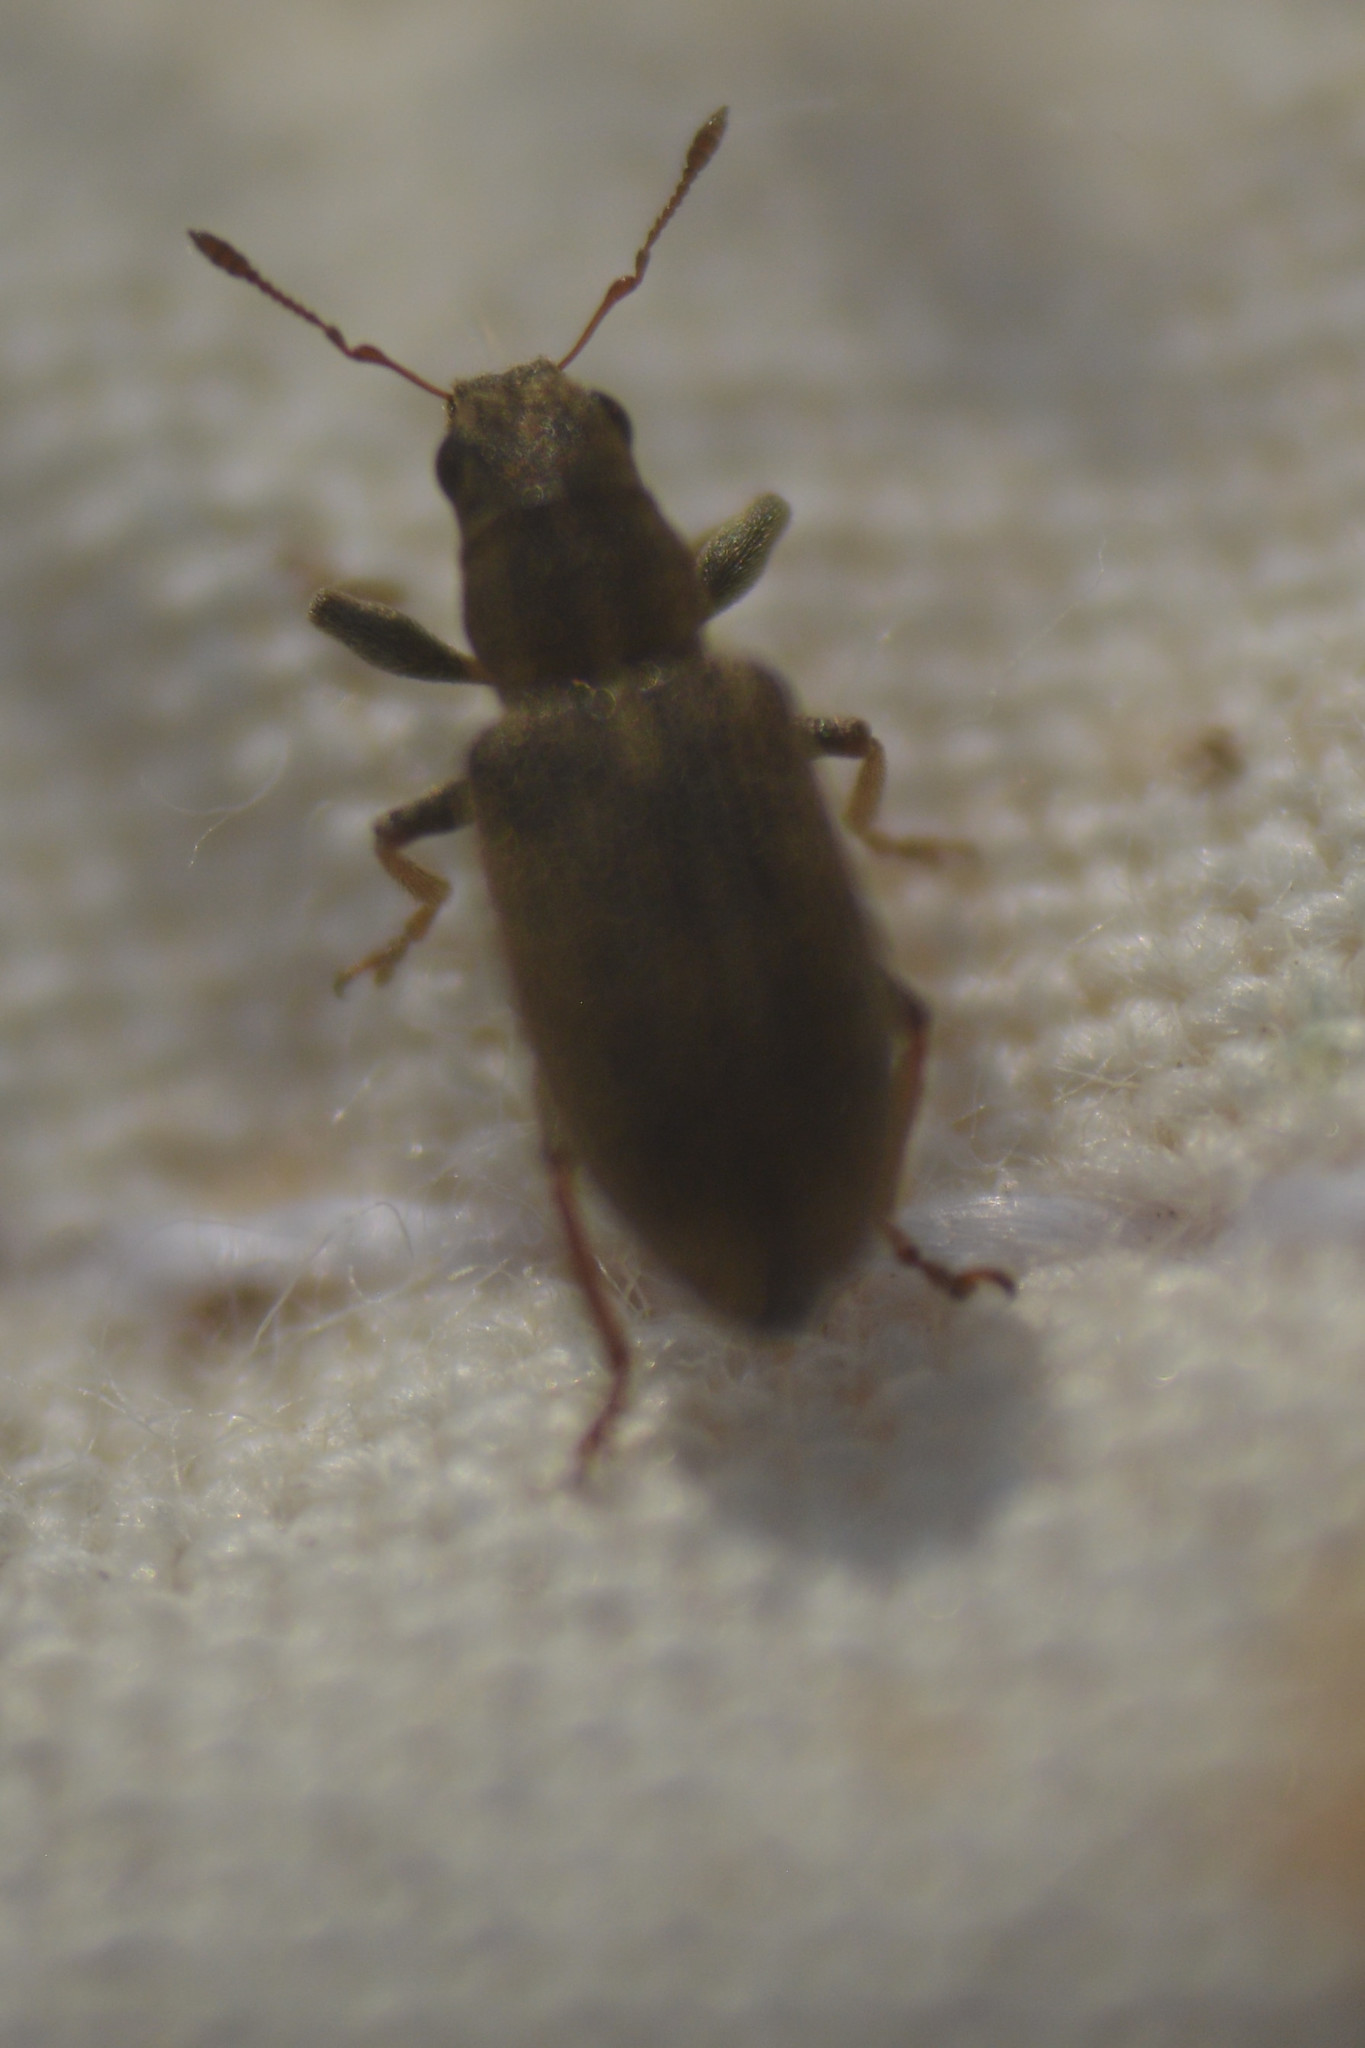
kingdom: Animalia
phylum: Arthropoda
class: Insecta
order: Coleoptera
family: Curculionidae
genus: Sitona
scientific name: Sitona lineatus
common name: Weevil
